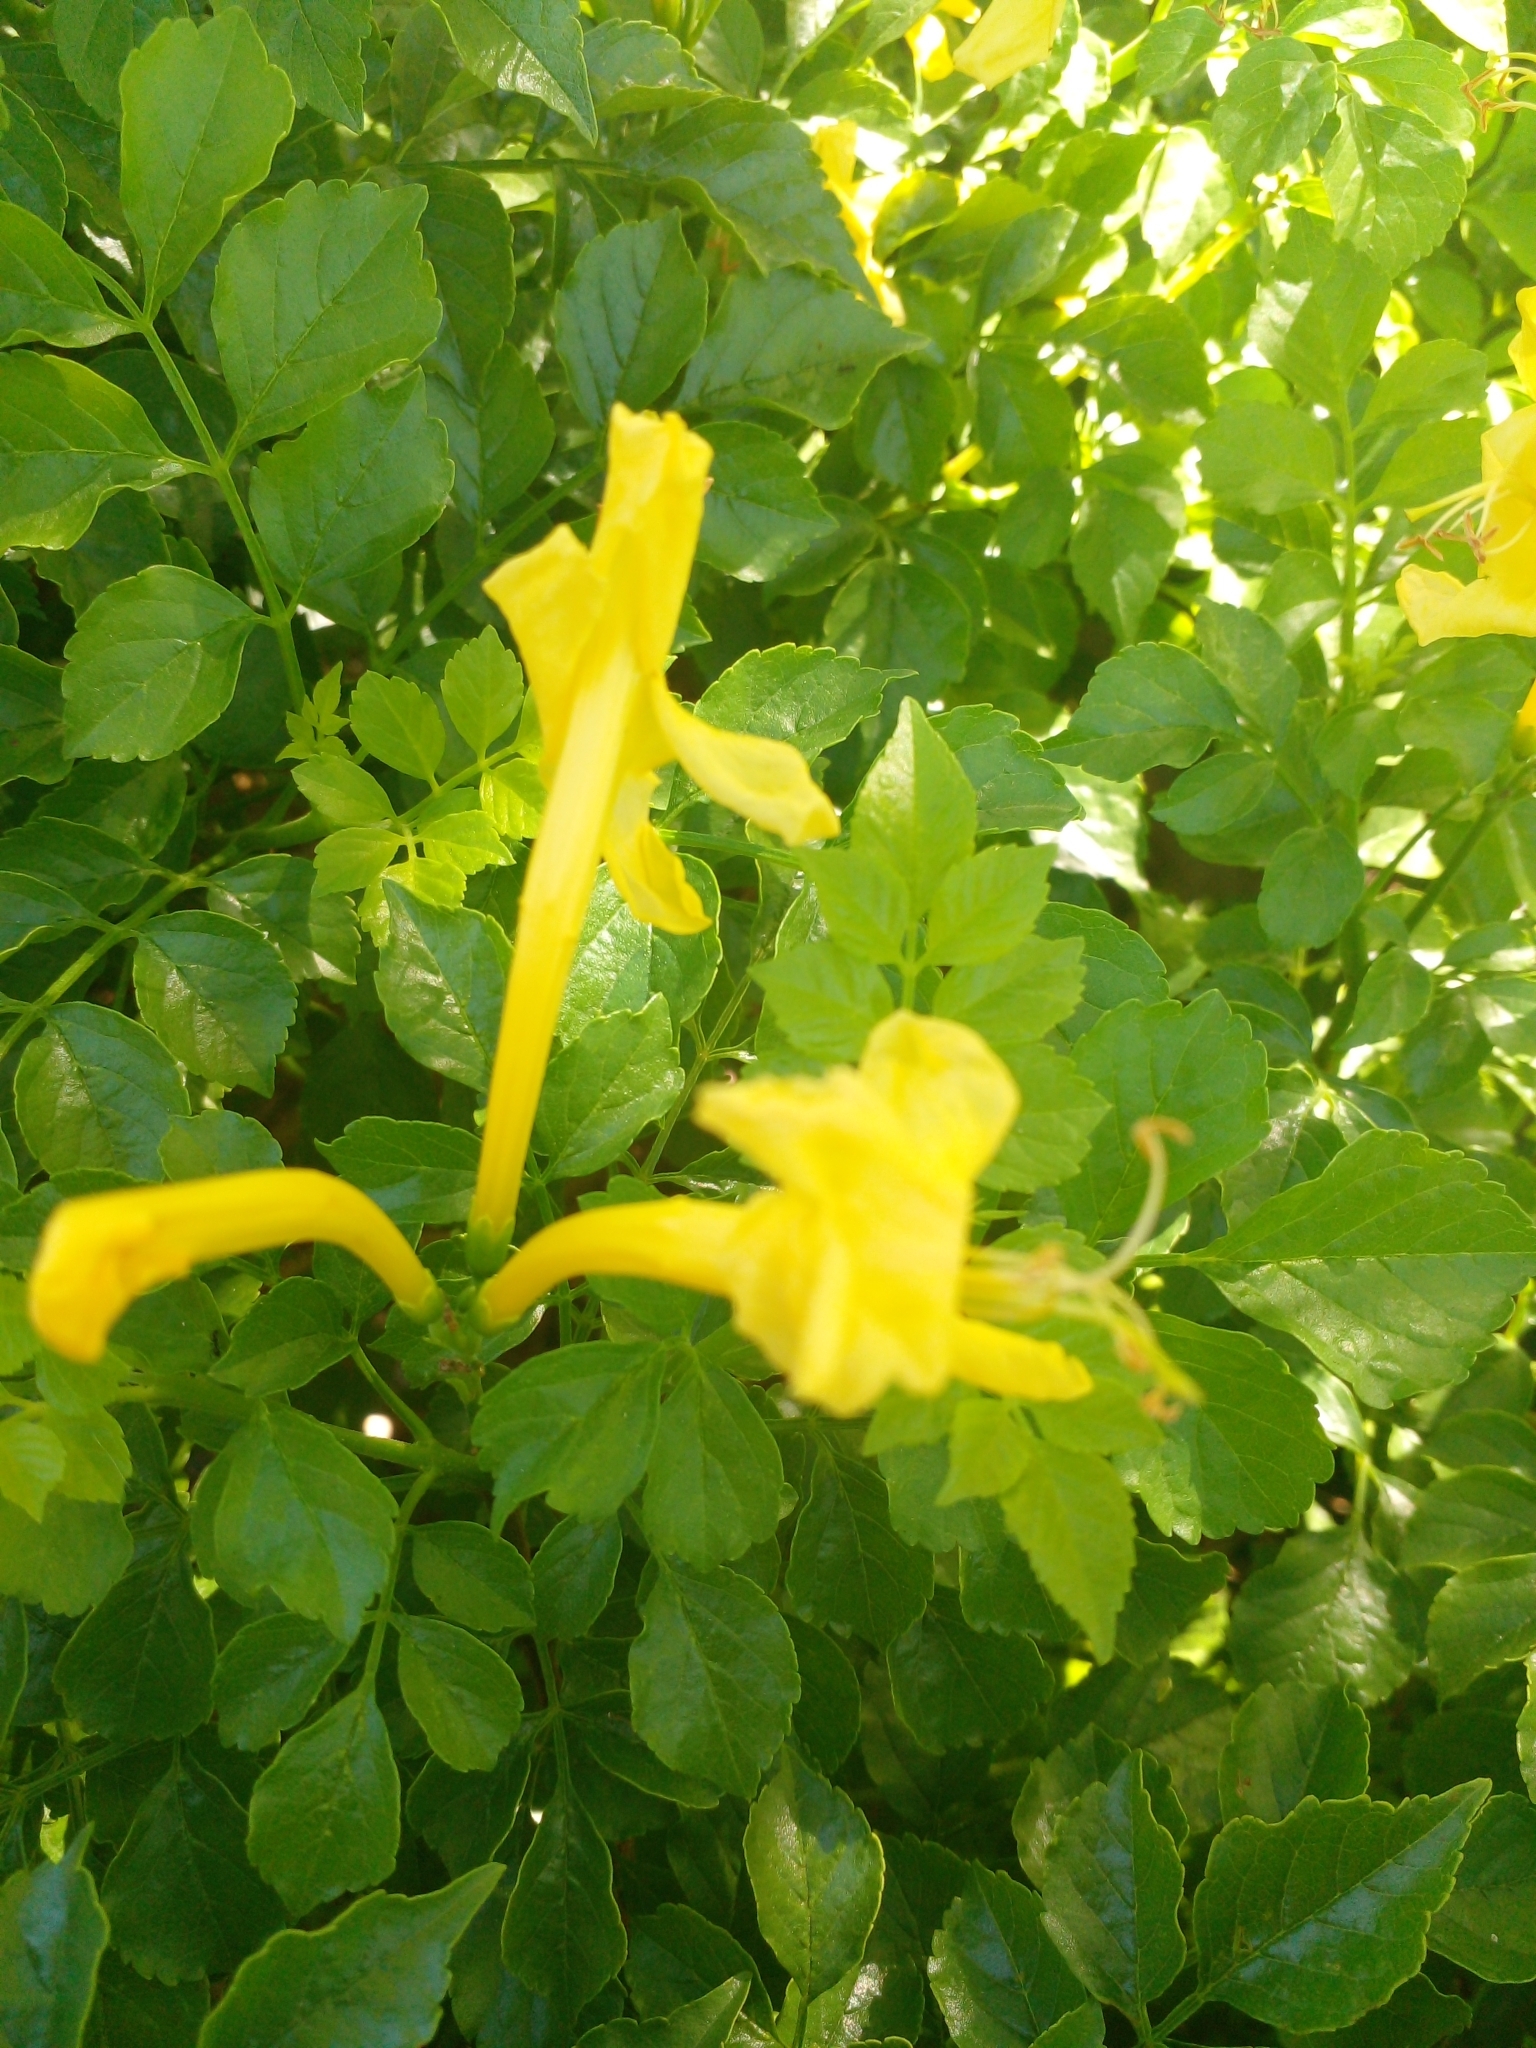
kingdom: Plantae
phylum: Tracheophyta
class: Magnoliopsida
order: Lamiales
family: Bignoniaceae
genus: Tecomaria
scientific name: Tecomaria capensis
